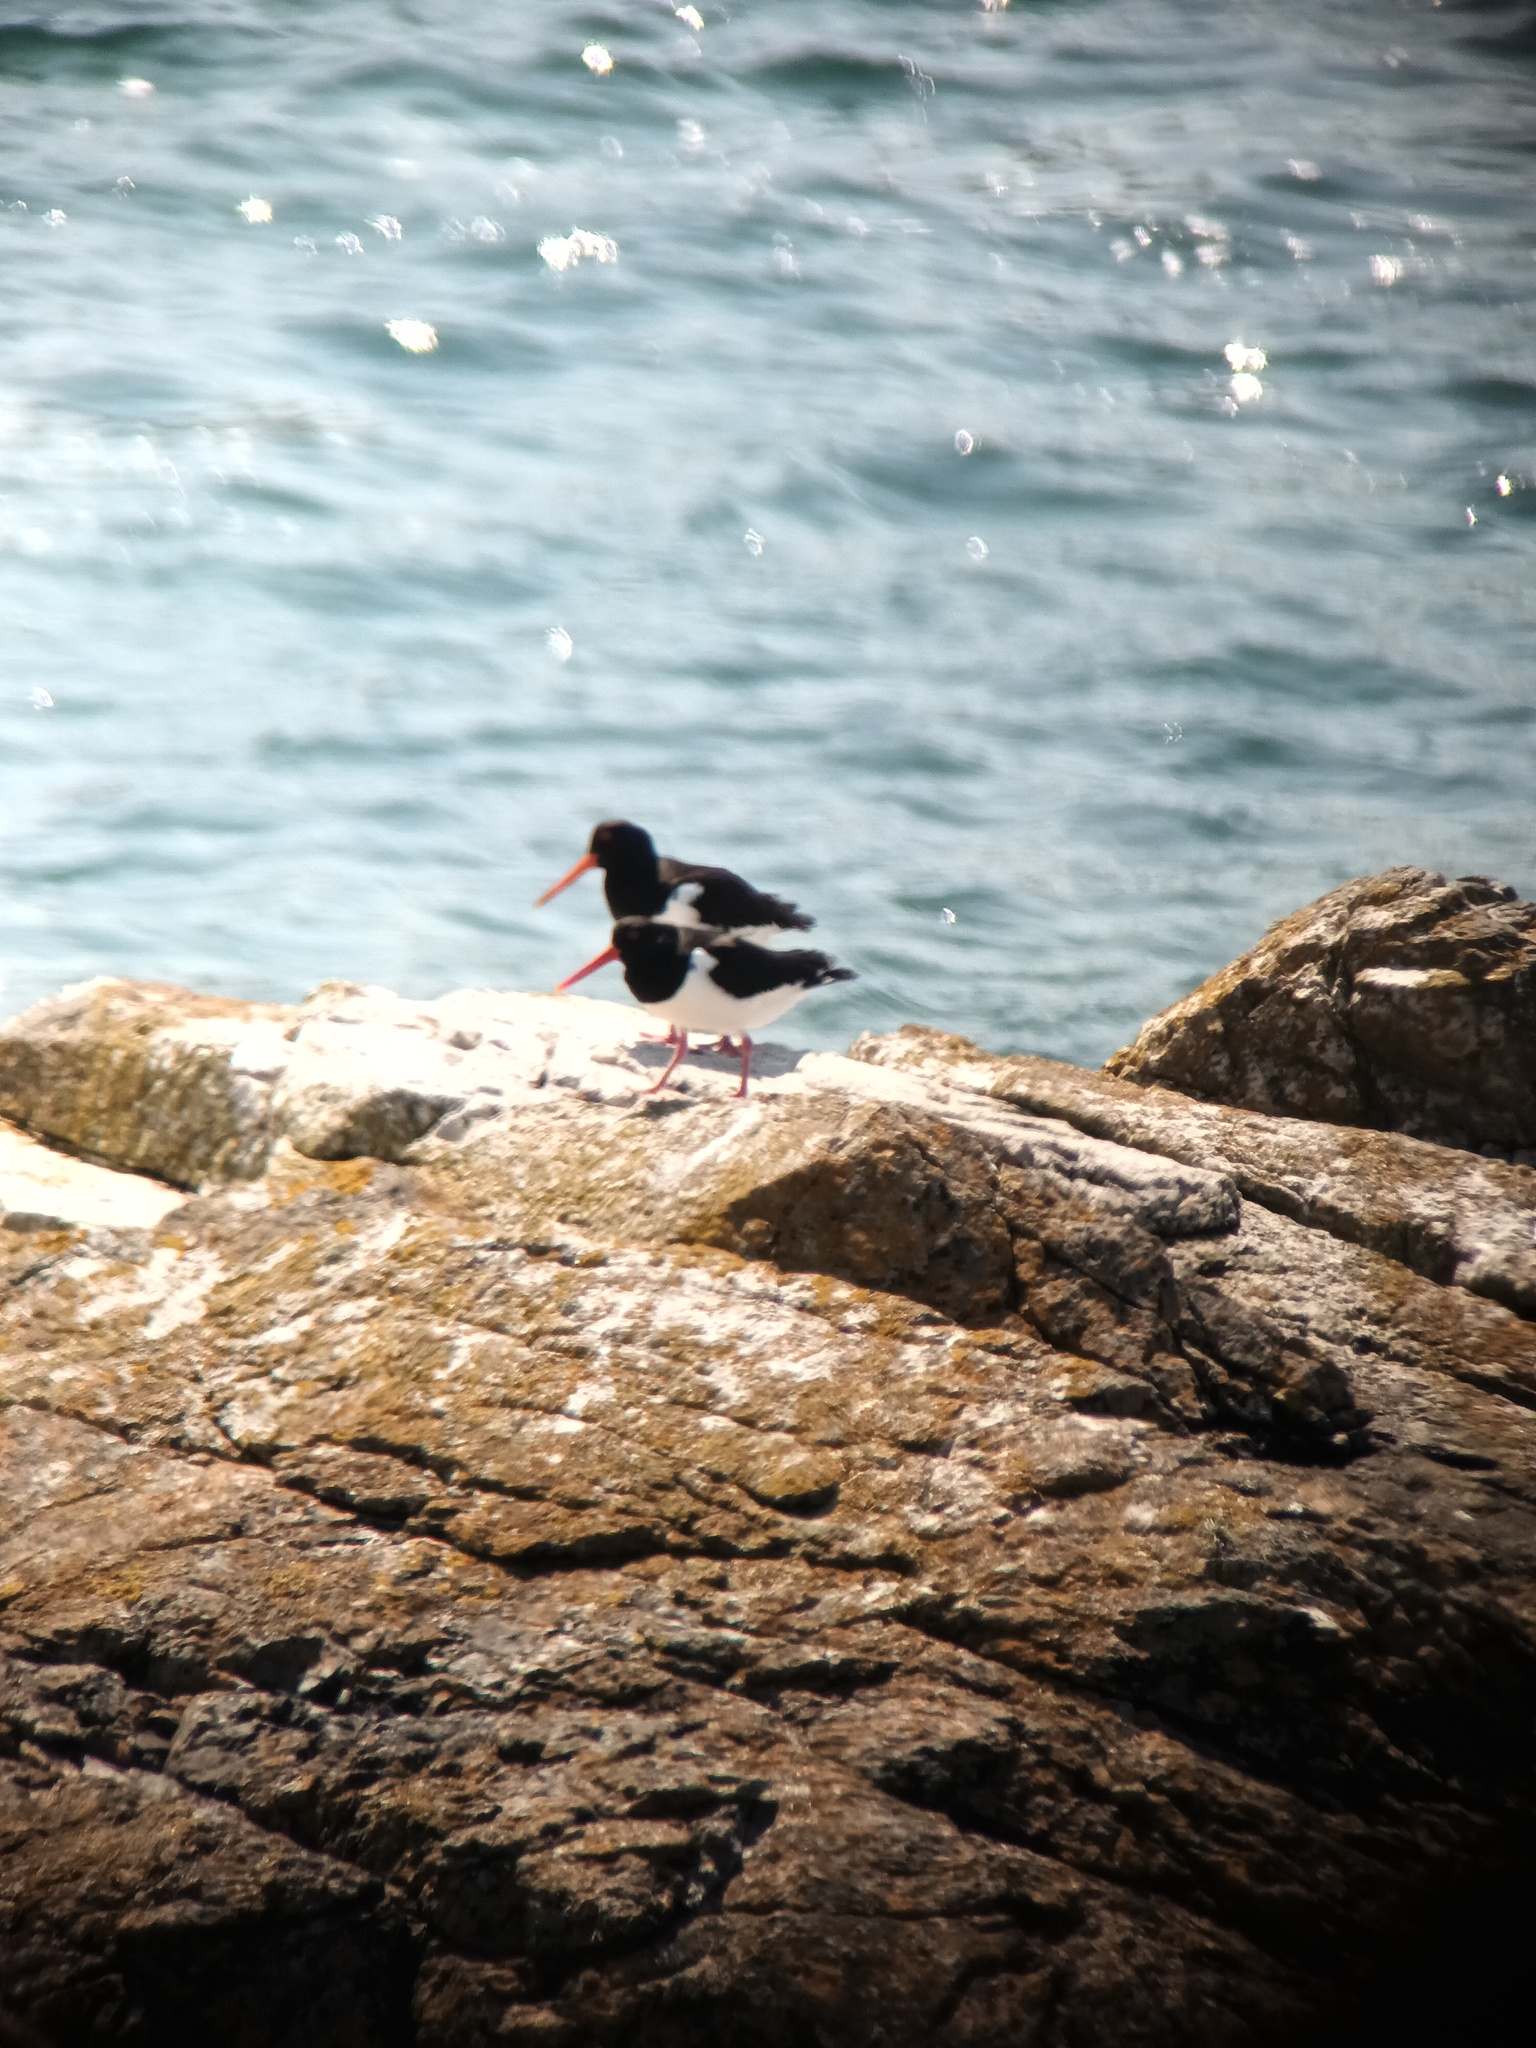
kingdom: Animalia
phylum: Chordata
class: Aves
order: Charadriiformes
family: Haematopodidae
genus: Haematopus
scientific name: Haematopus ostralegus
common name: Eurasian oystercatcher
